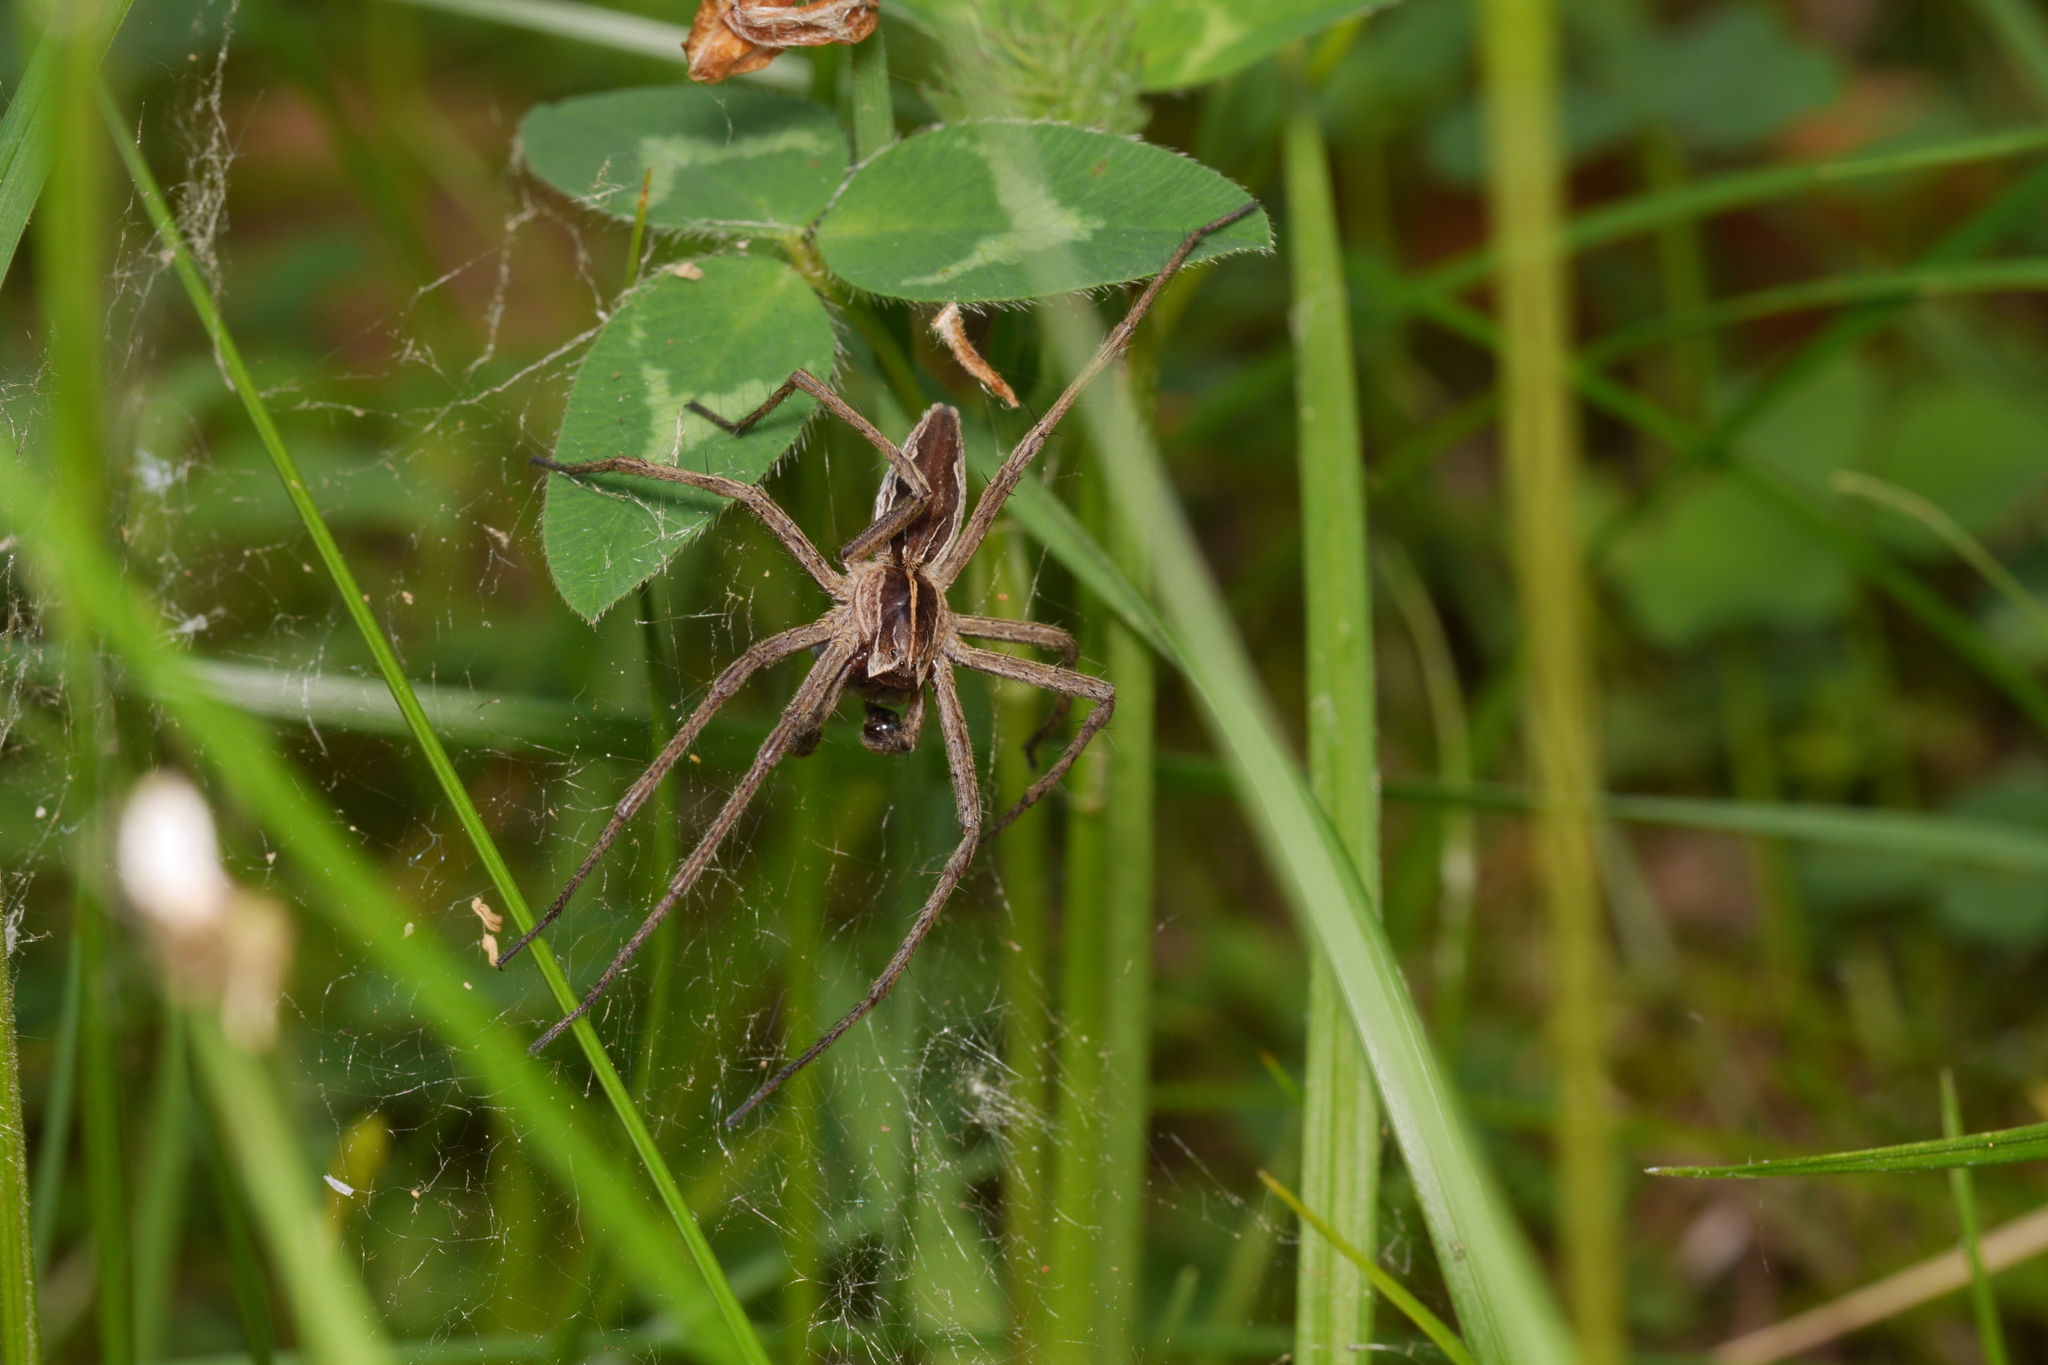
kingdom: Animalia
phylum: Arthropoda
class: Arachnida
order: Araneae
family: Pisauridae
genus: Pisaura
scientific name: Pisaura mirabilis
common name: Tent spider
